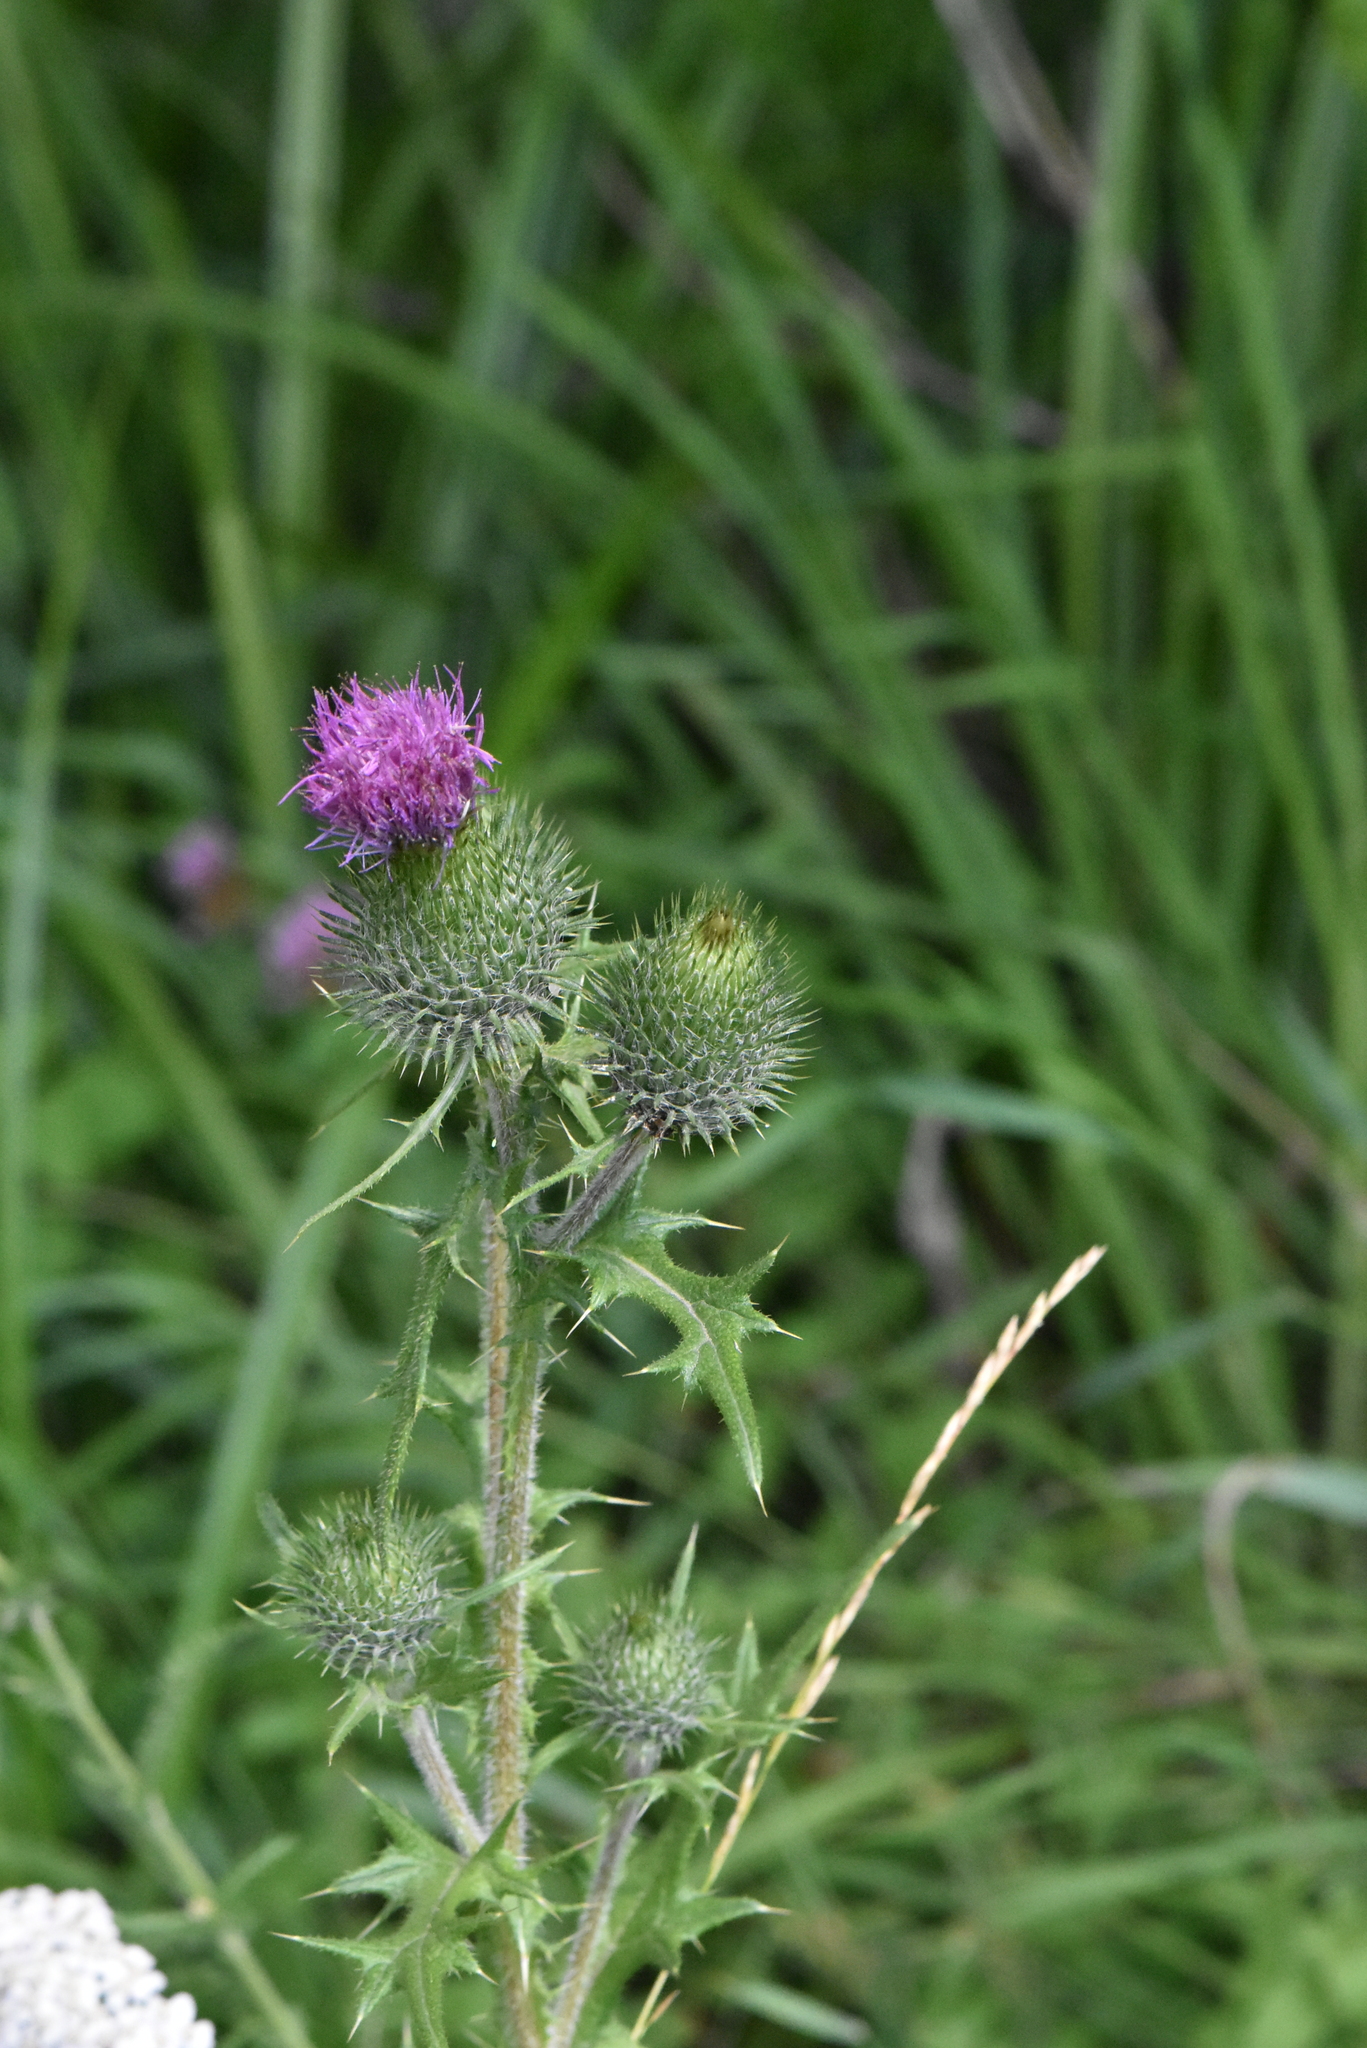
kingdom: Plantae
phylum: Tracheophyta
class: Magnoliopsida
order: Asterales
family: Asteraceae
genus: Cirsium
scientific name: Cirsium vulgare
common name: Bull thistle
